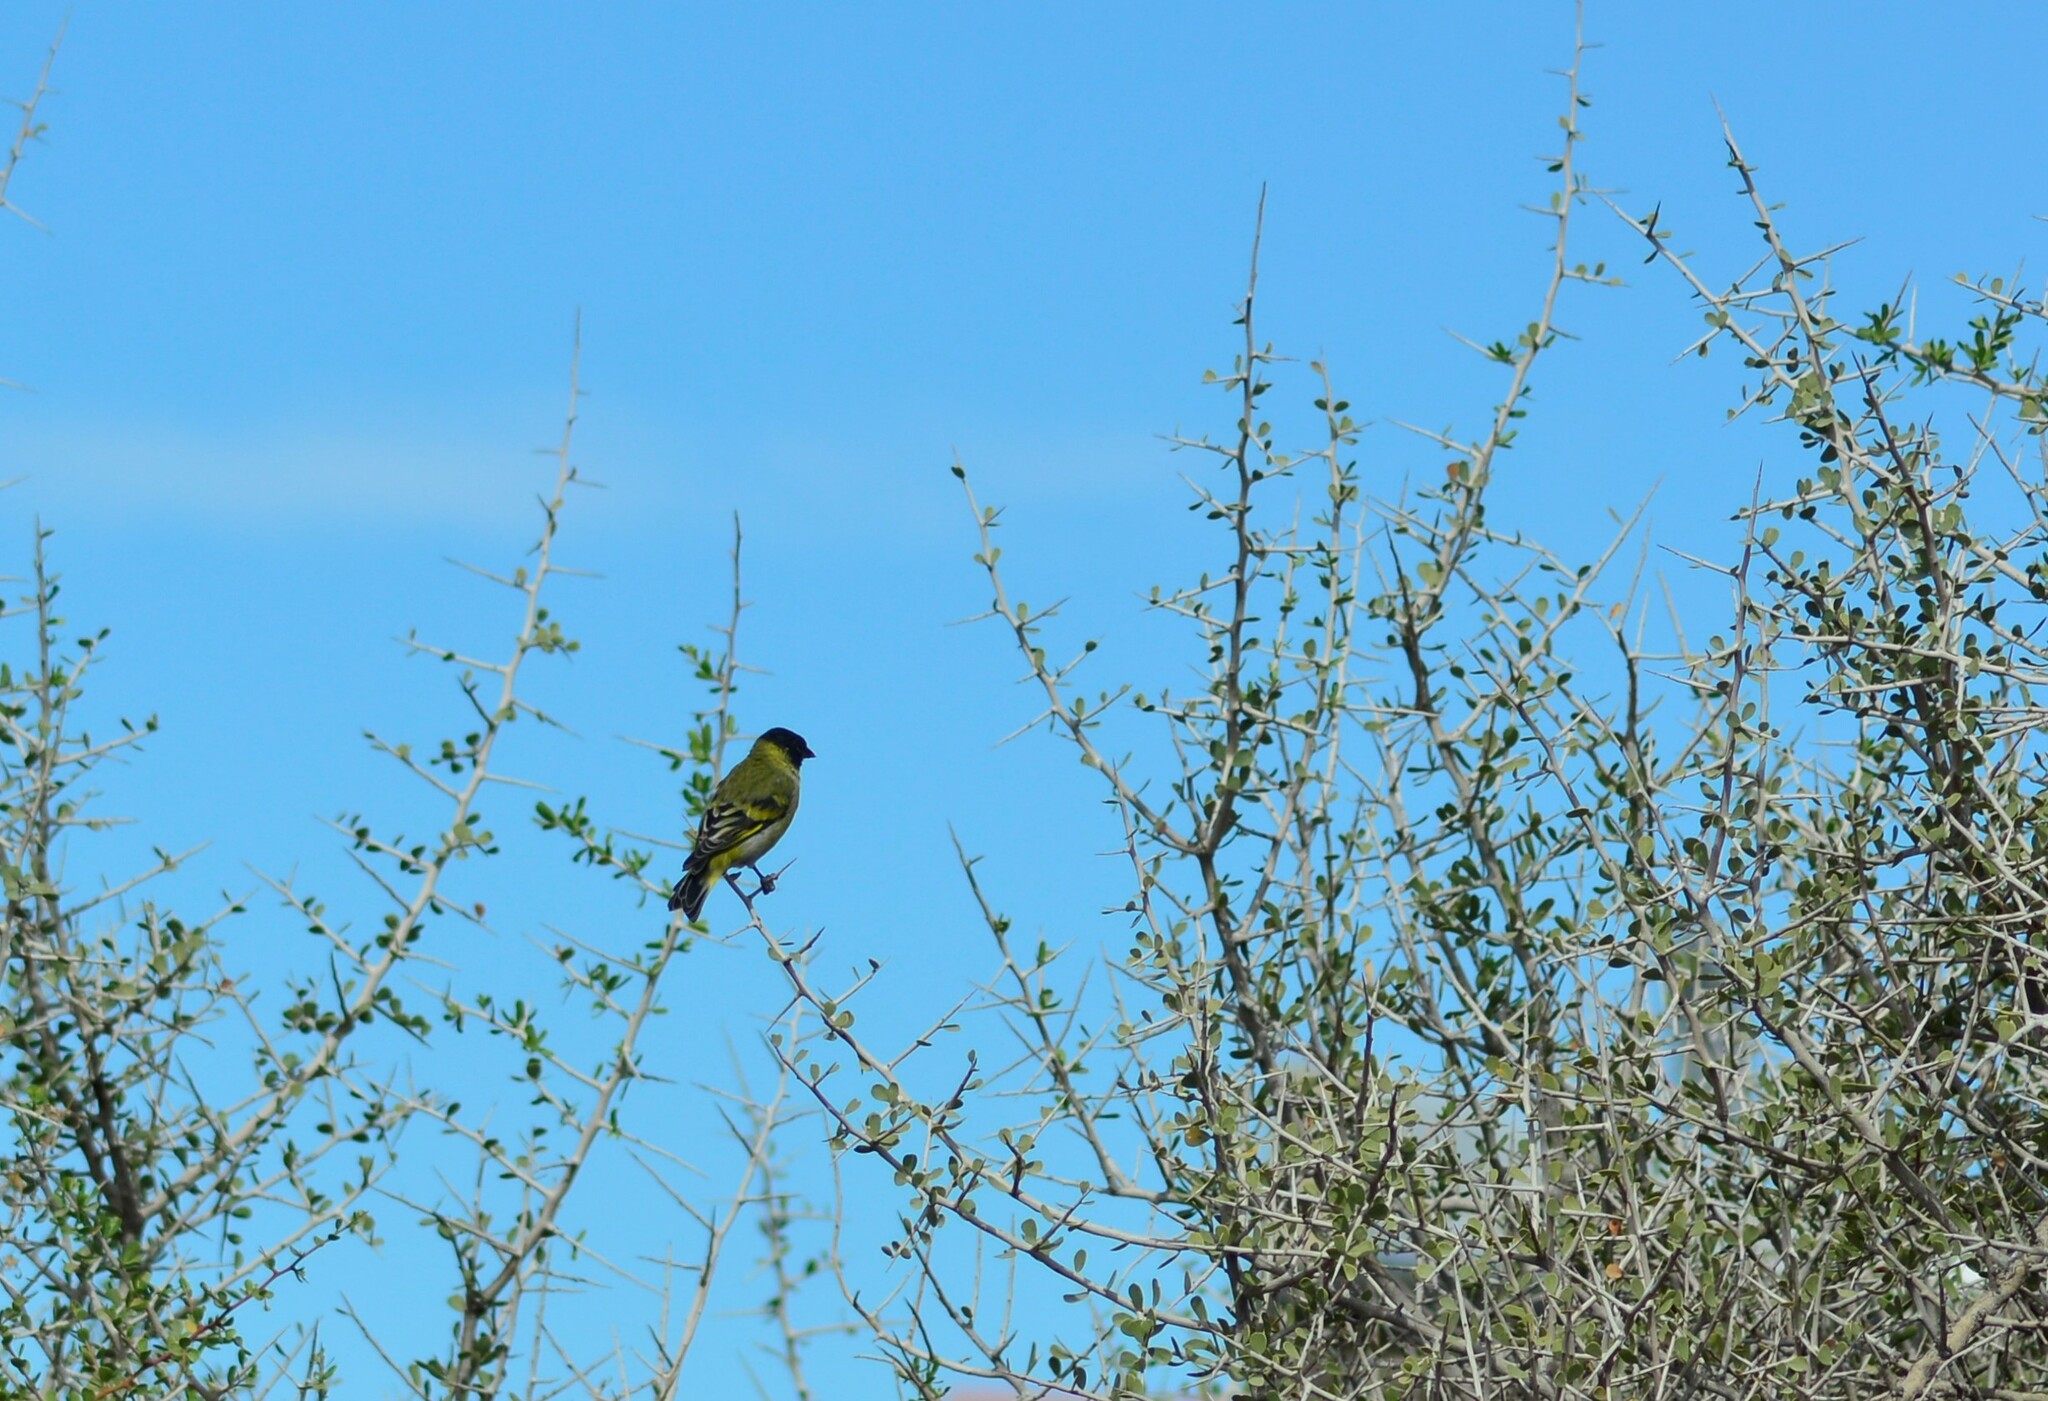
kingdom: Animalia
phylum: Chordata
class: Aves
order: Passeriformes
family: Fringillidae
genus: Spinus
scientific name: Spinus magellanicus
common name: Hooded siskin
